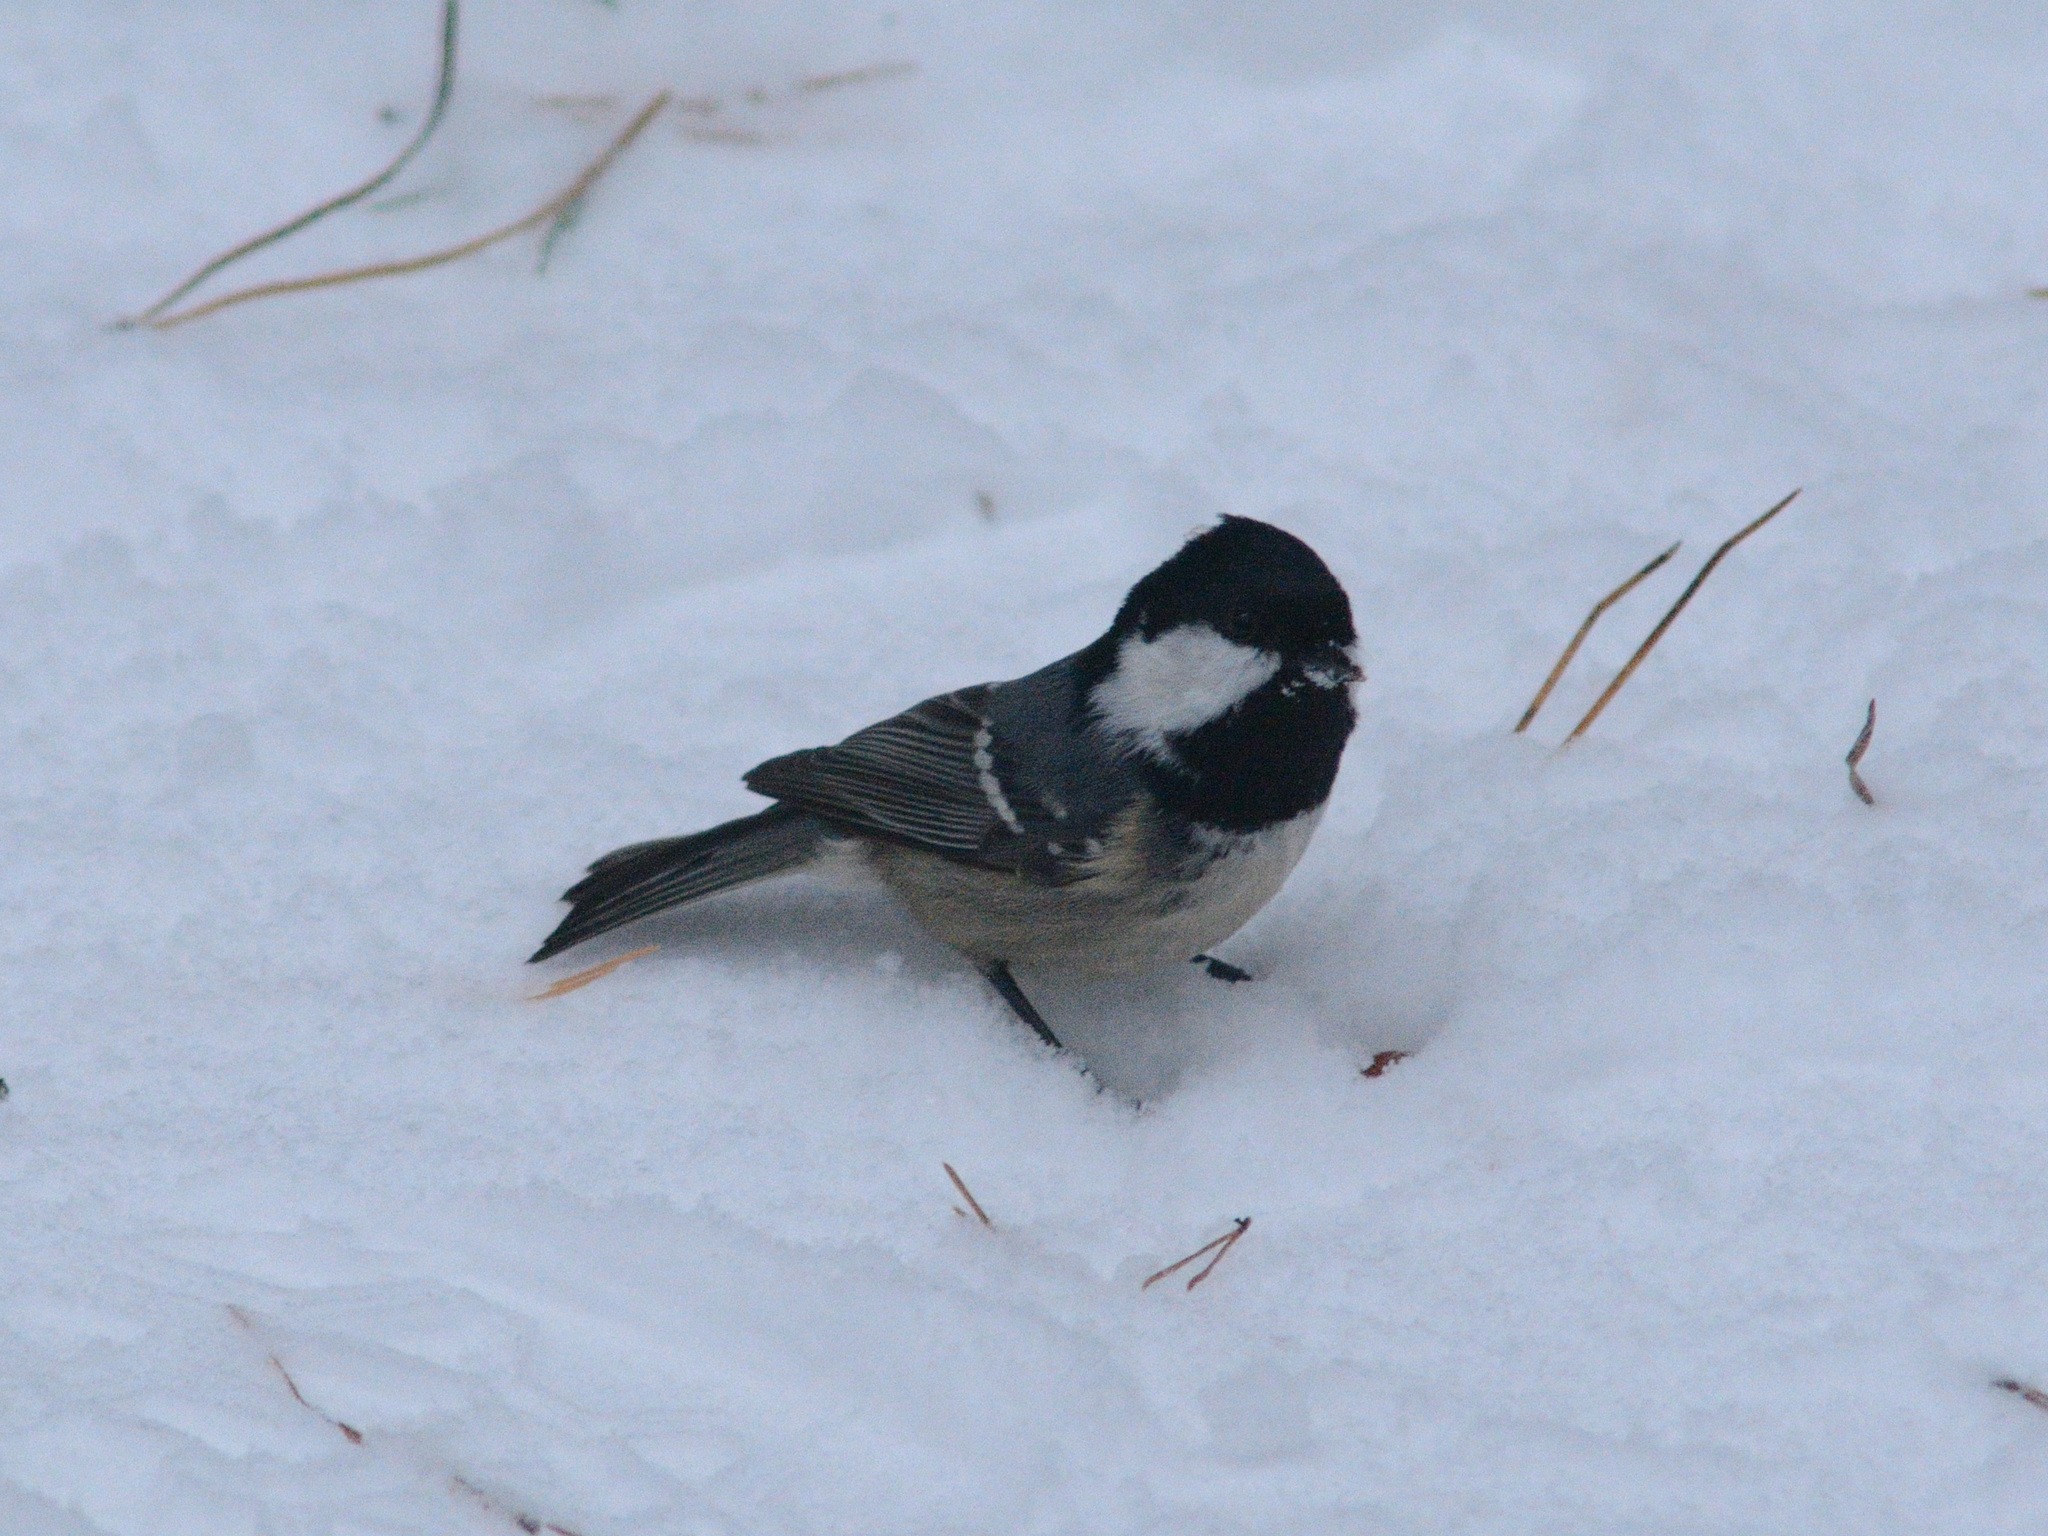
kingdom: Animalia
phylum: Chordata
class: Aves
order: Passeriformes
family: Paridae
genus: Periparus
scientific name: Periparus ater
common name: Coal tit
